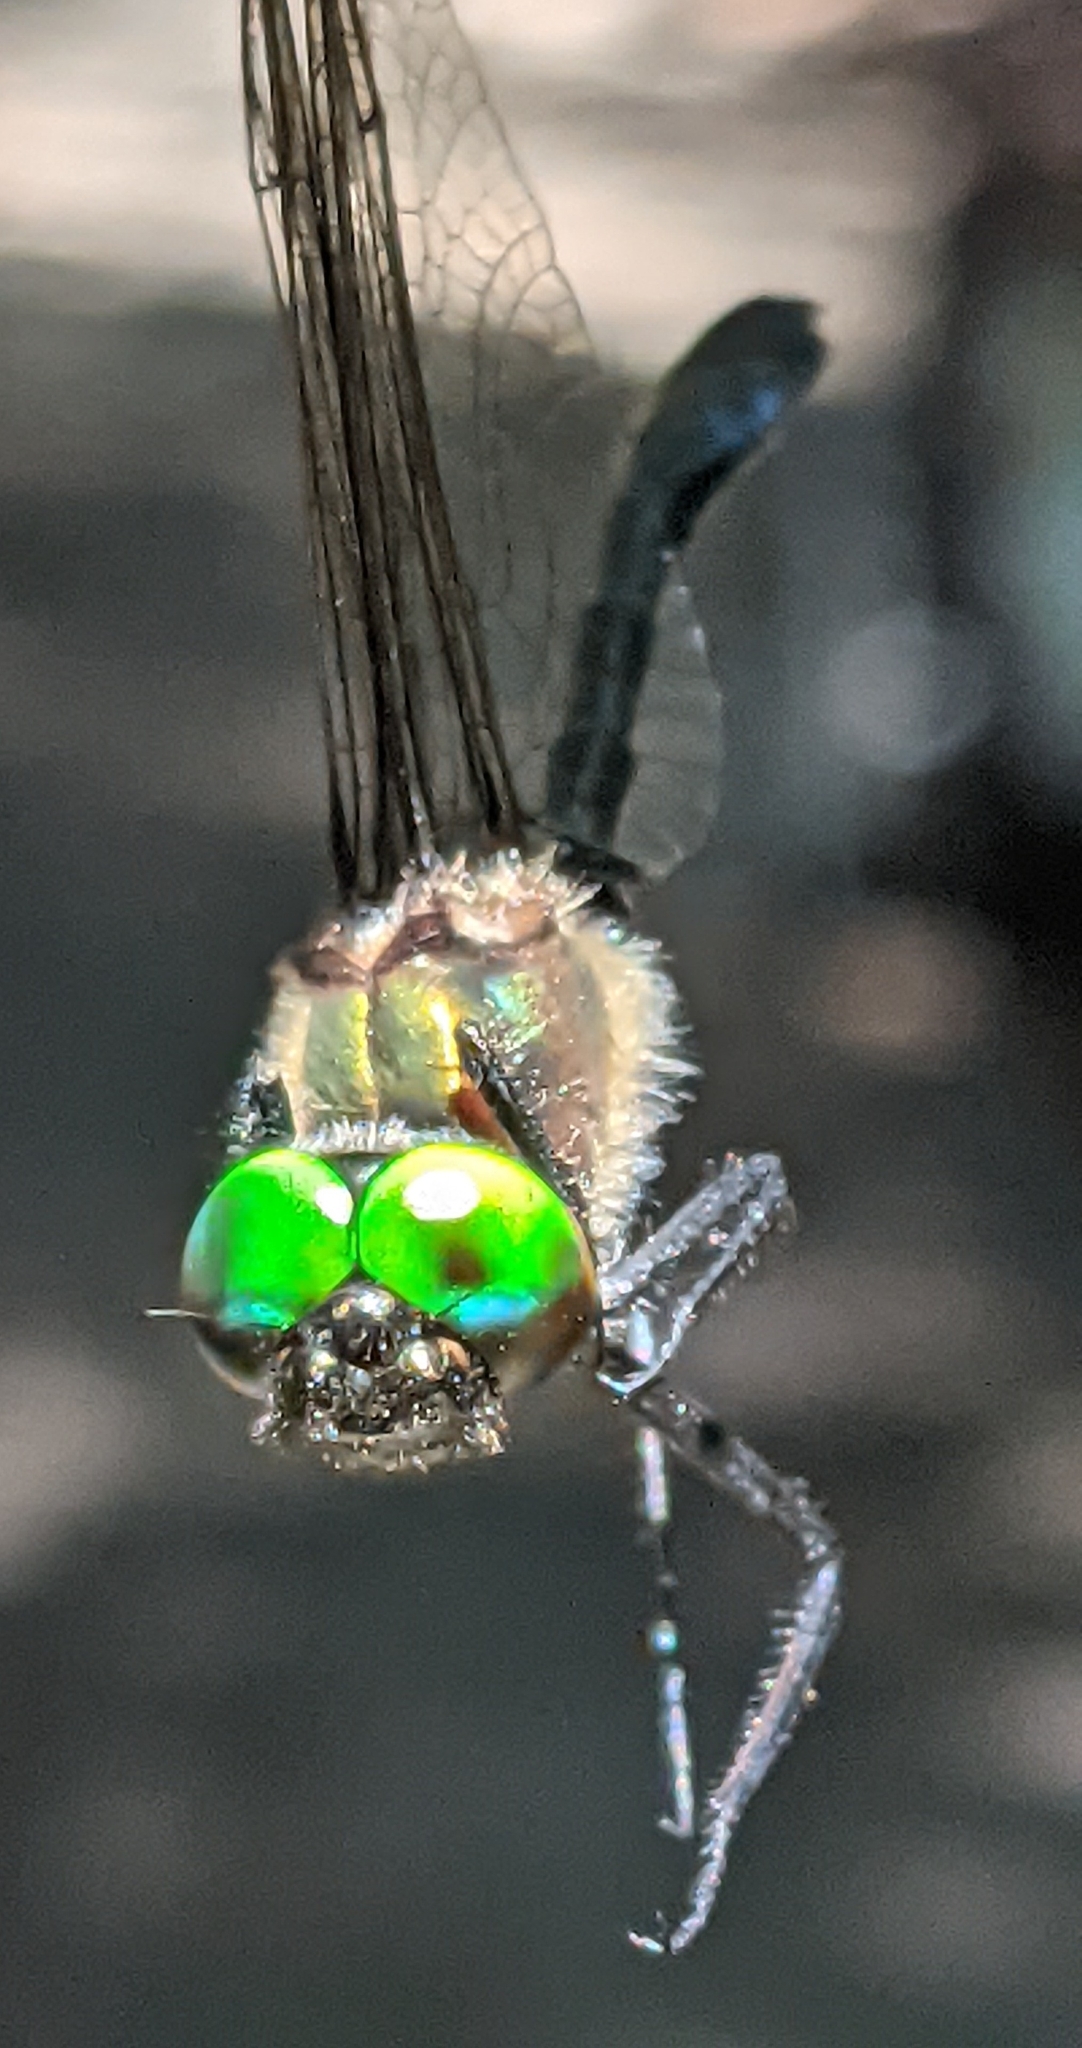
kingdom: Animalia
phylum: Arthropoda
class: Insecta
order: Odonata
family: Corduliidae
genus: Dorocordulia
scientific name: Dorocordulia libera
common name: Racket-tailed emerald
